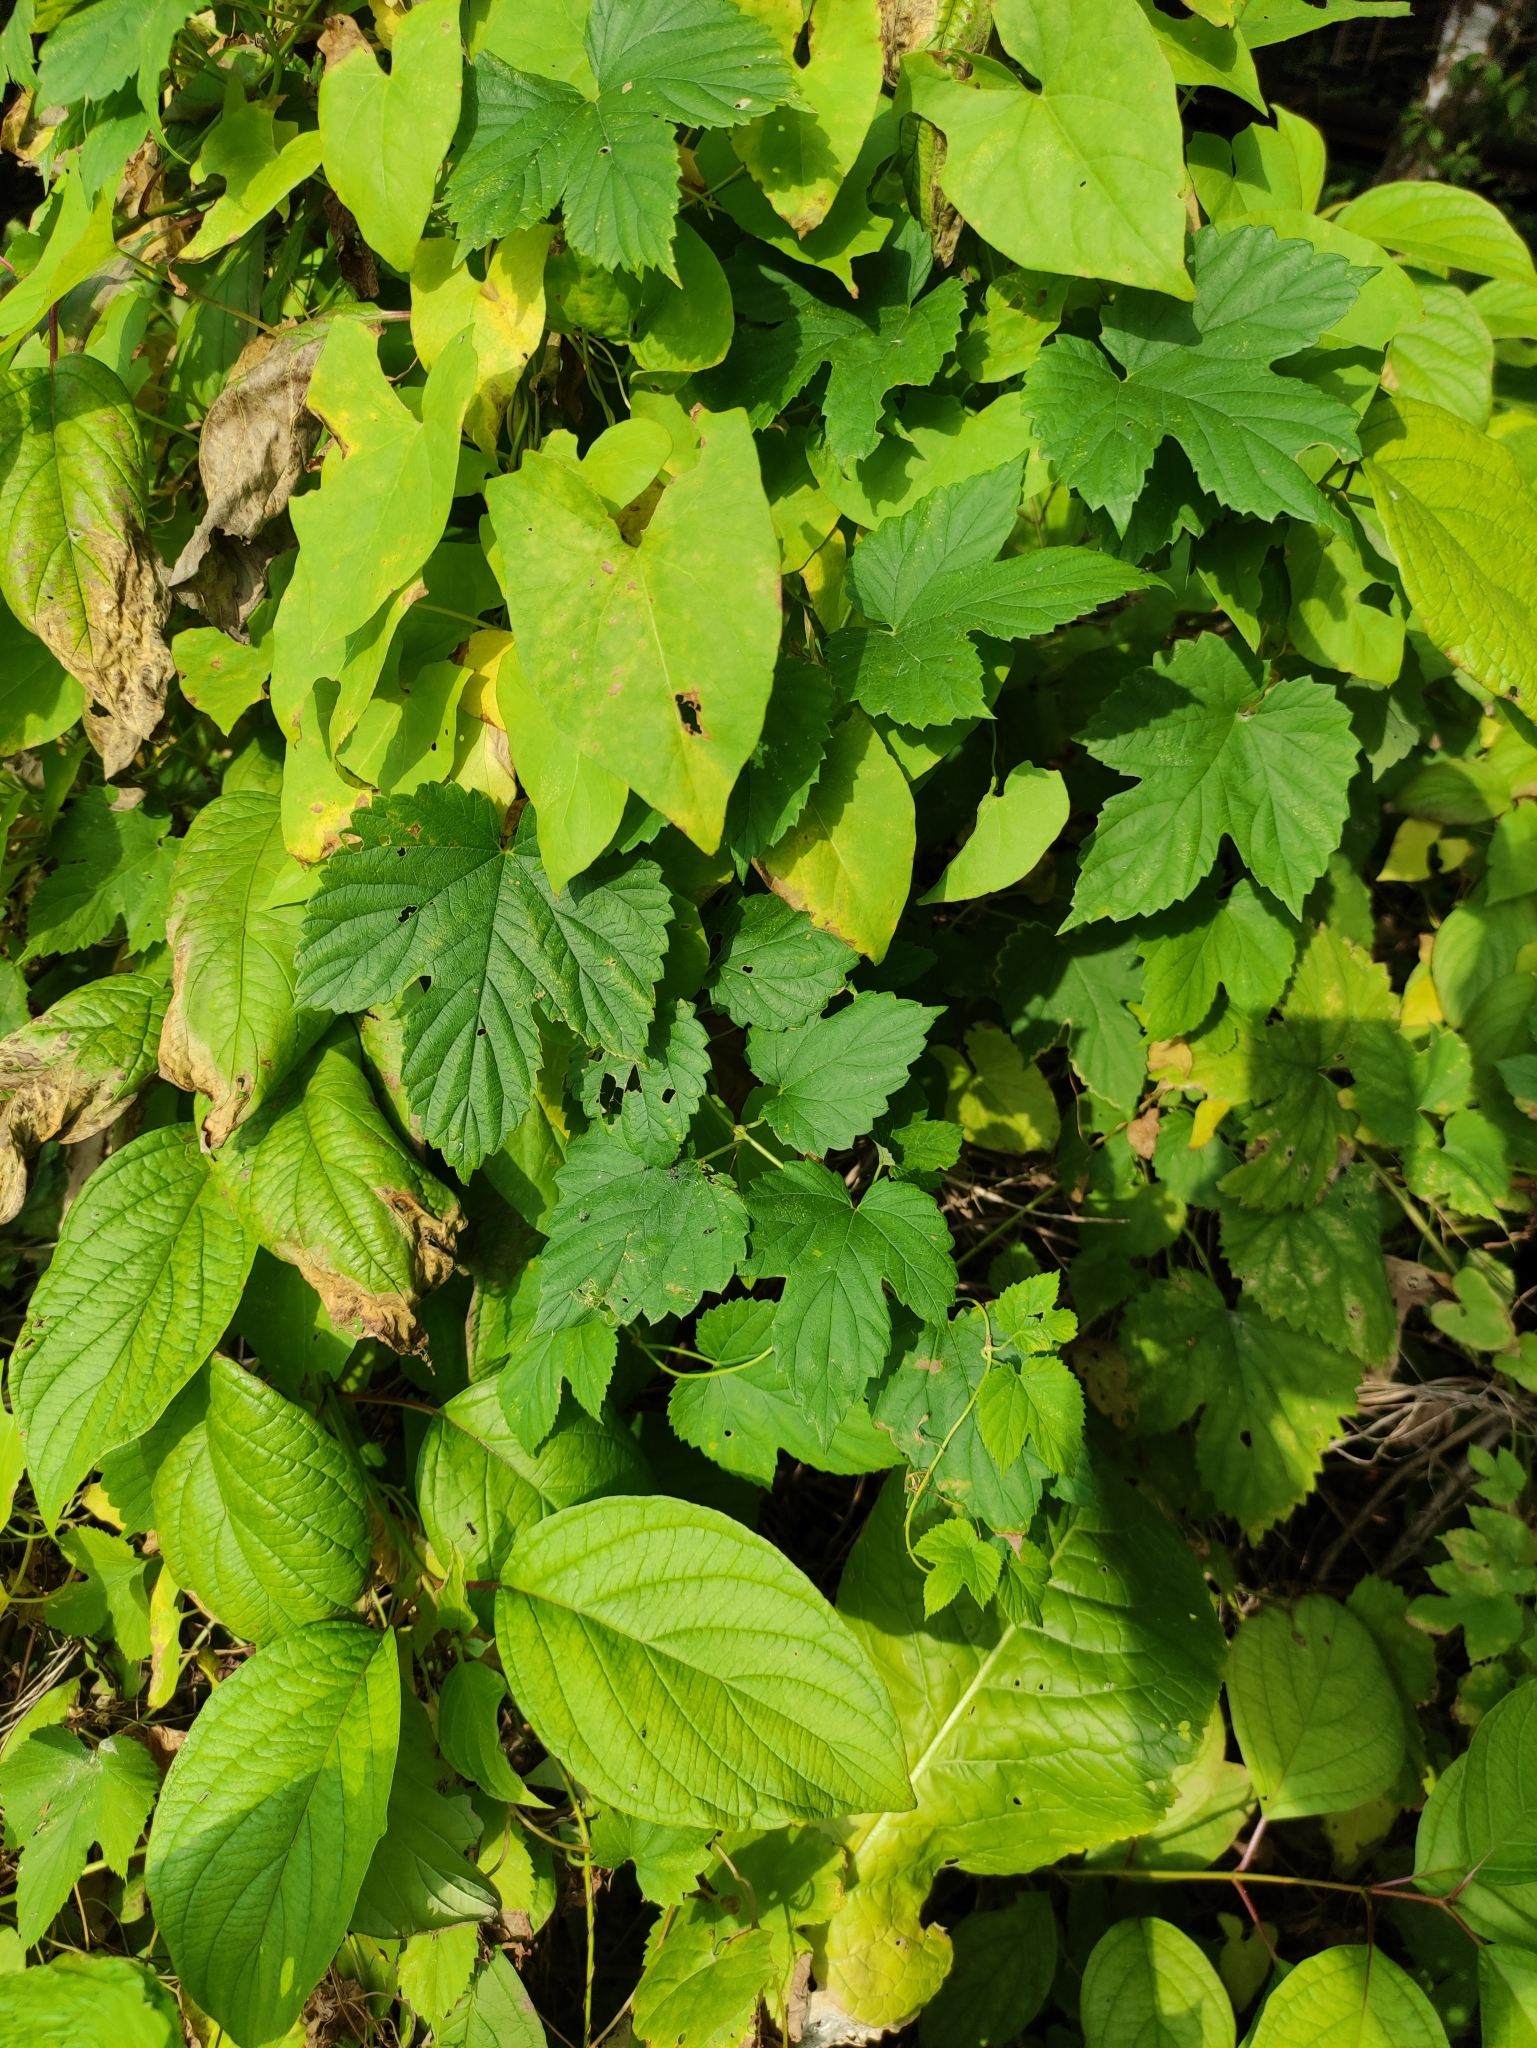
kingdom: Plantae
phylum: Tracheophyta
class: Magnoliopsida
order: Rosales
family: Cannabaceae
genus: Humulus
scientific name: Humulus lupulus
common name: Hop
